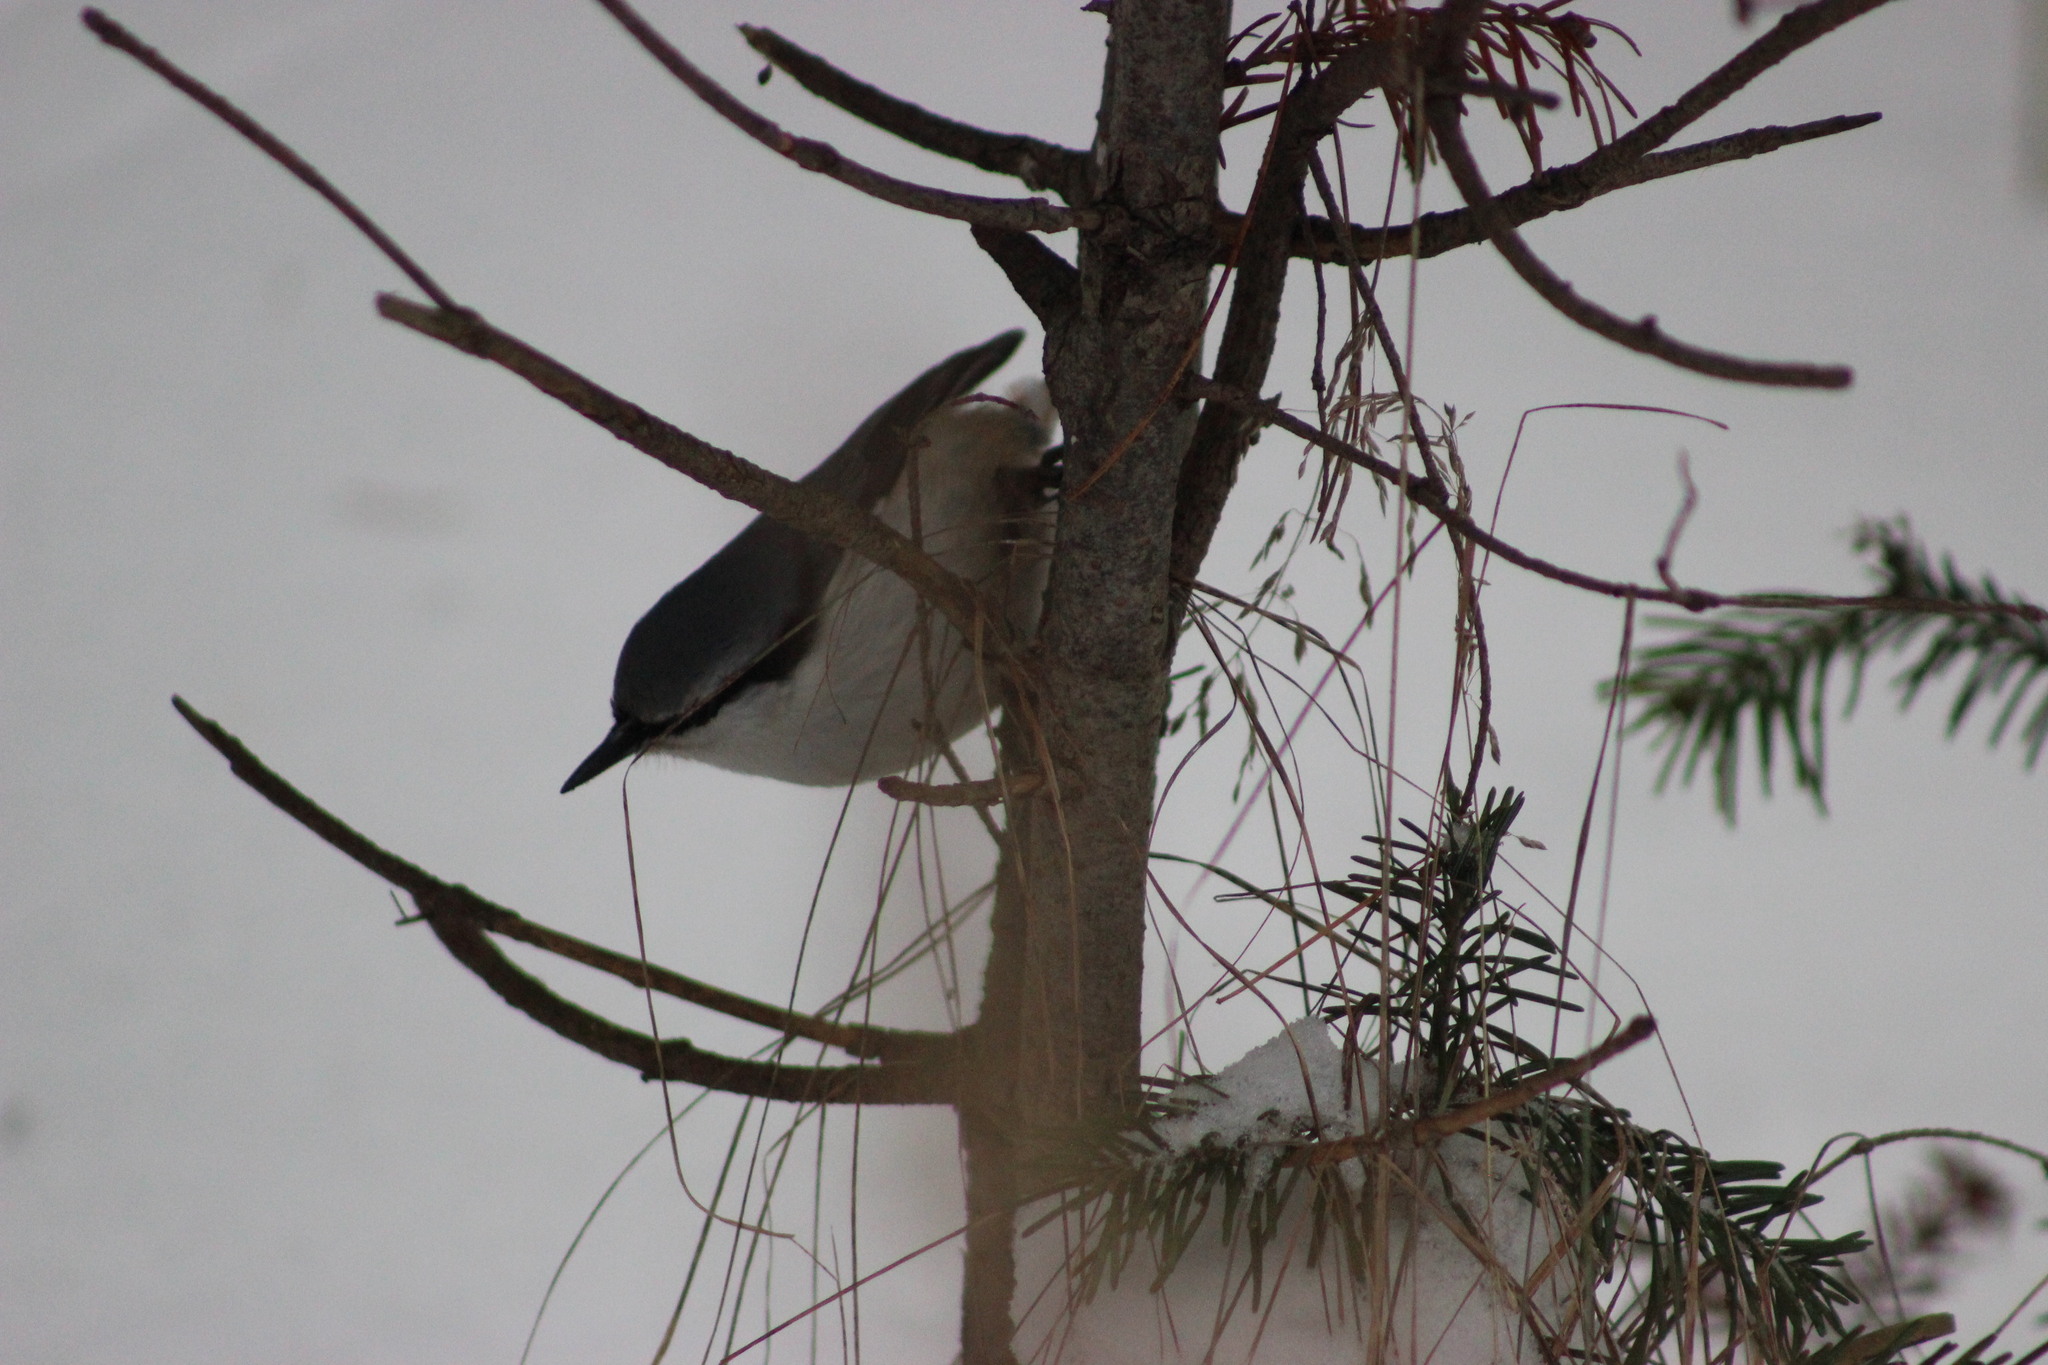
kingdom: Animalia
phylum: Chordata
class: Aves
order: Passeriformes
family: Sittidae
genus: Sitta
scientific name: Sitta europaea
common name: Eurasian nuthatch
